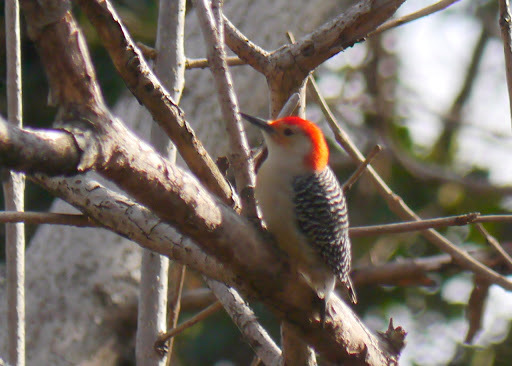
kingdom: Animalia
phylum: Chordata
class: Aves
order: Piciformes
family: Picidae
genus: Melanerpes
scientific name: Melanerpes carolinus
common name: Red-bellied woodpecker
